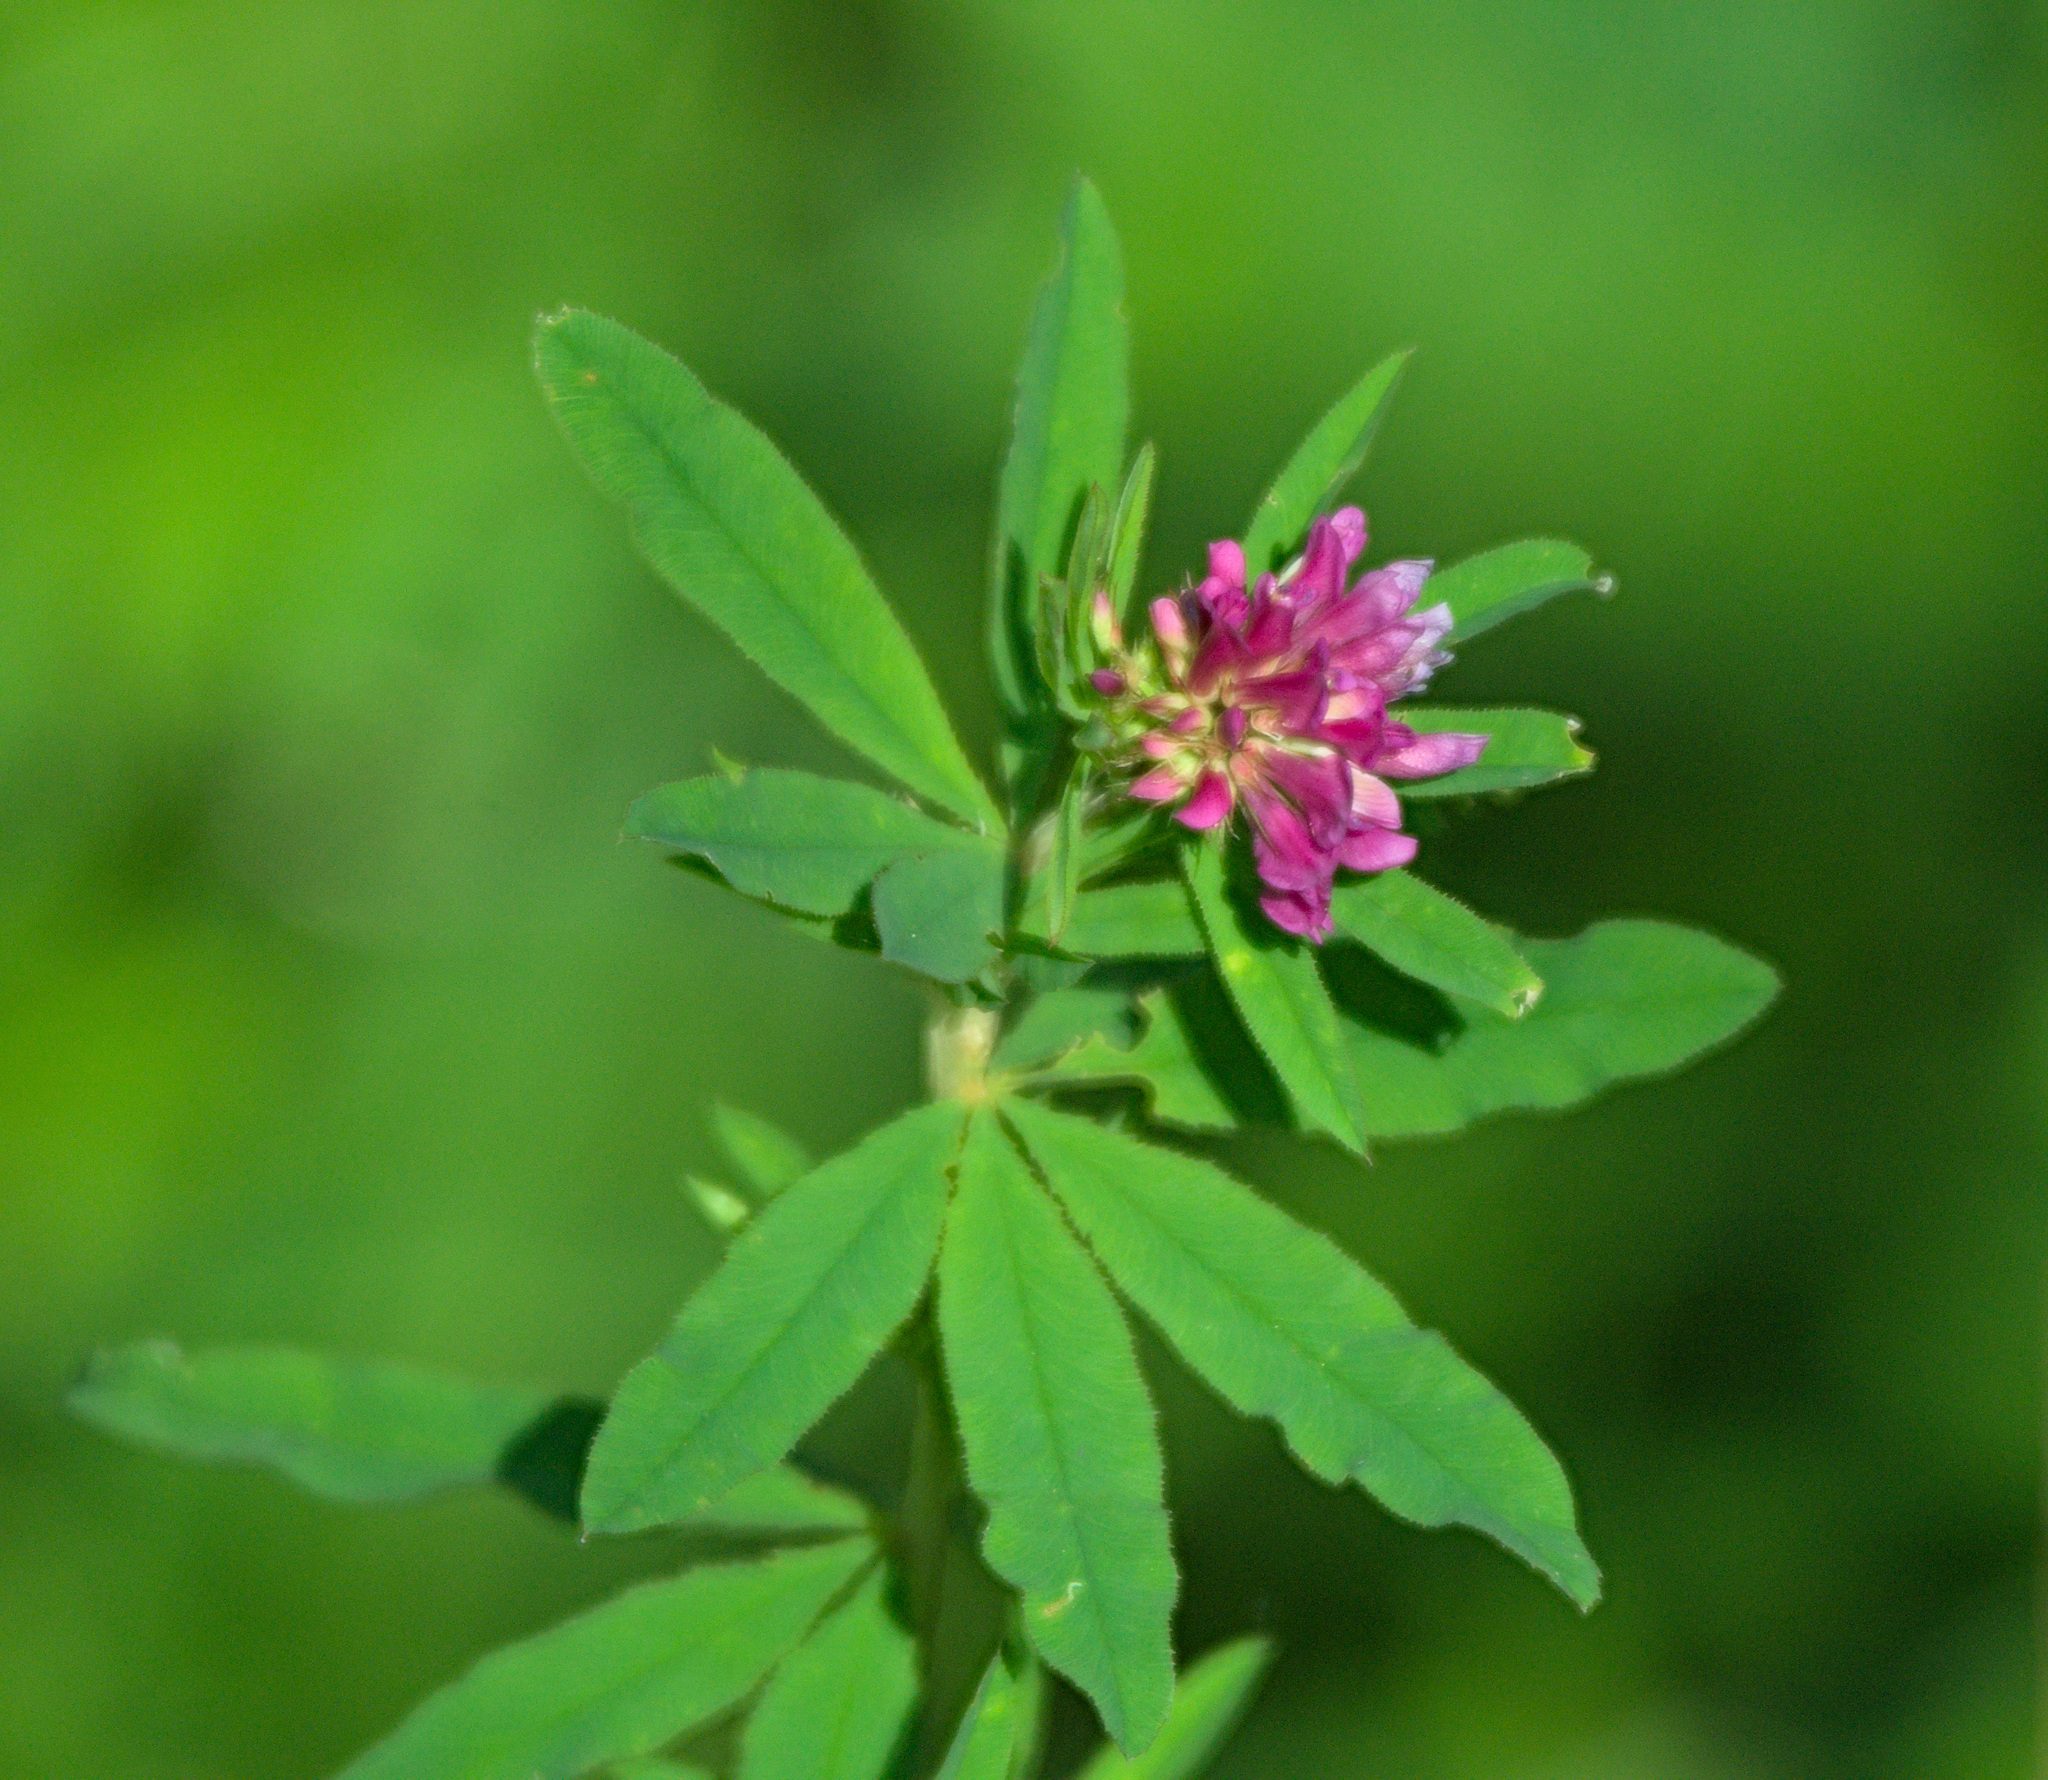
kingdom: Plantae
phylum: Tracheophyta
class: Magnoliopsida
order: Fabales
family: Fabaceae
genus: Trifolium
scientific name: Trifolium lupinaster
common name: Lupine clover
